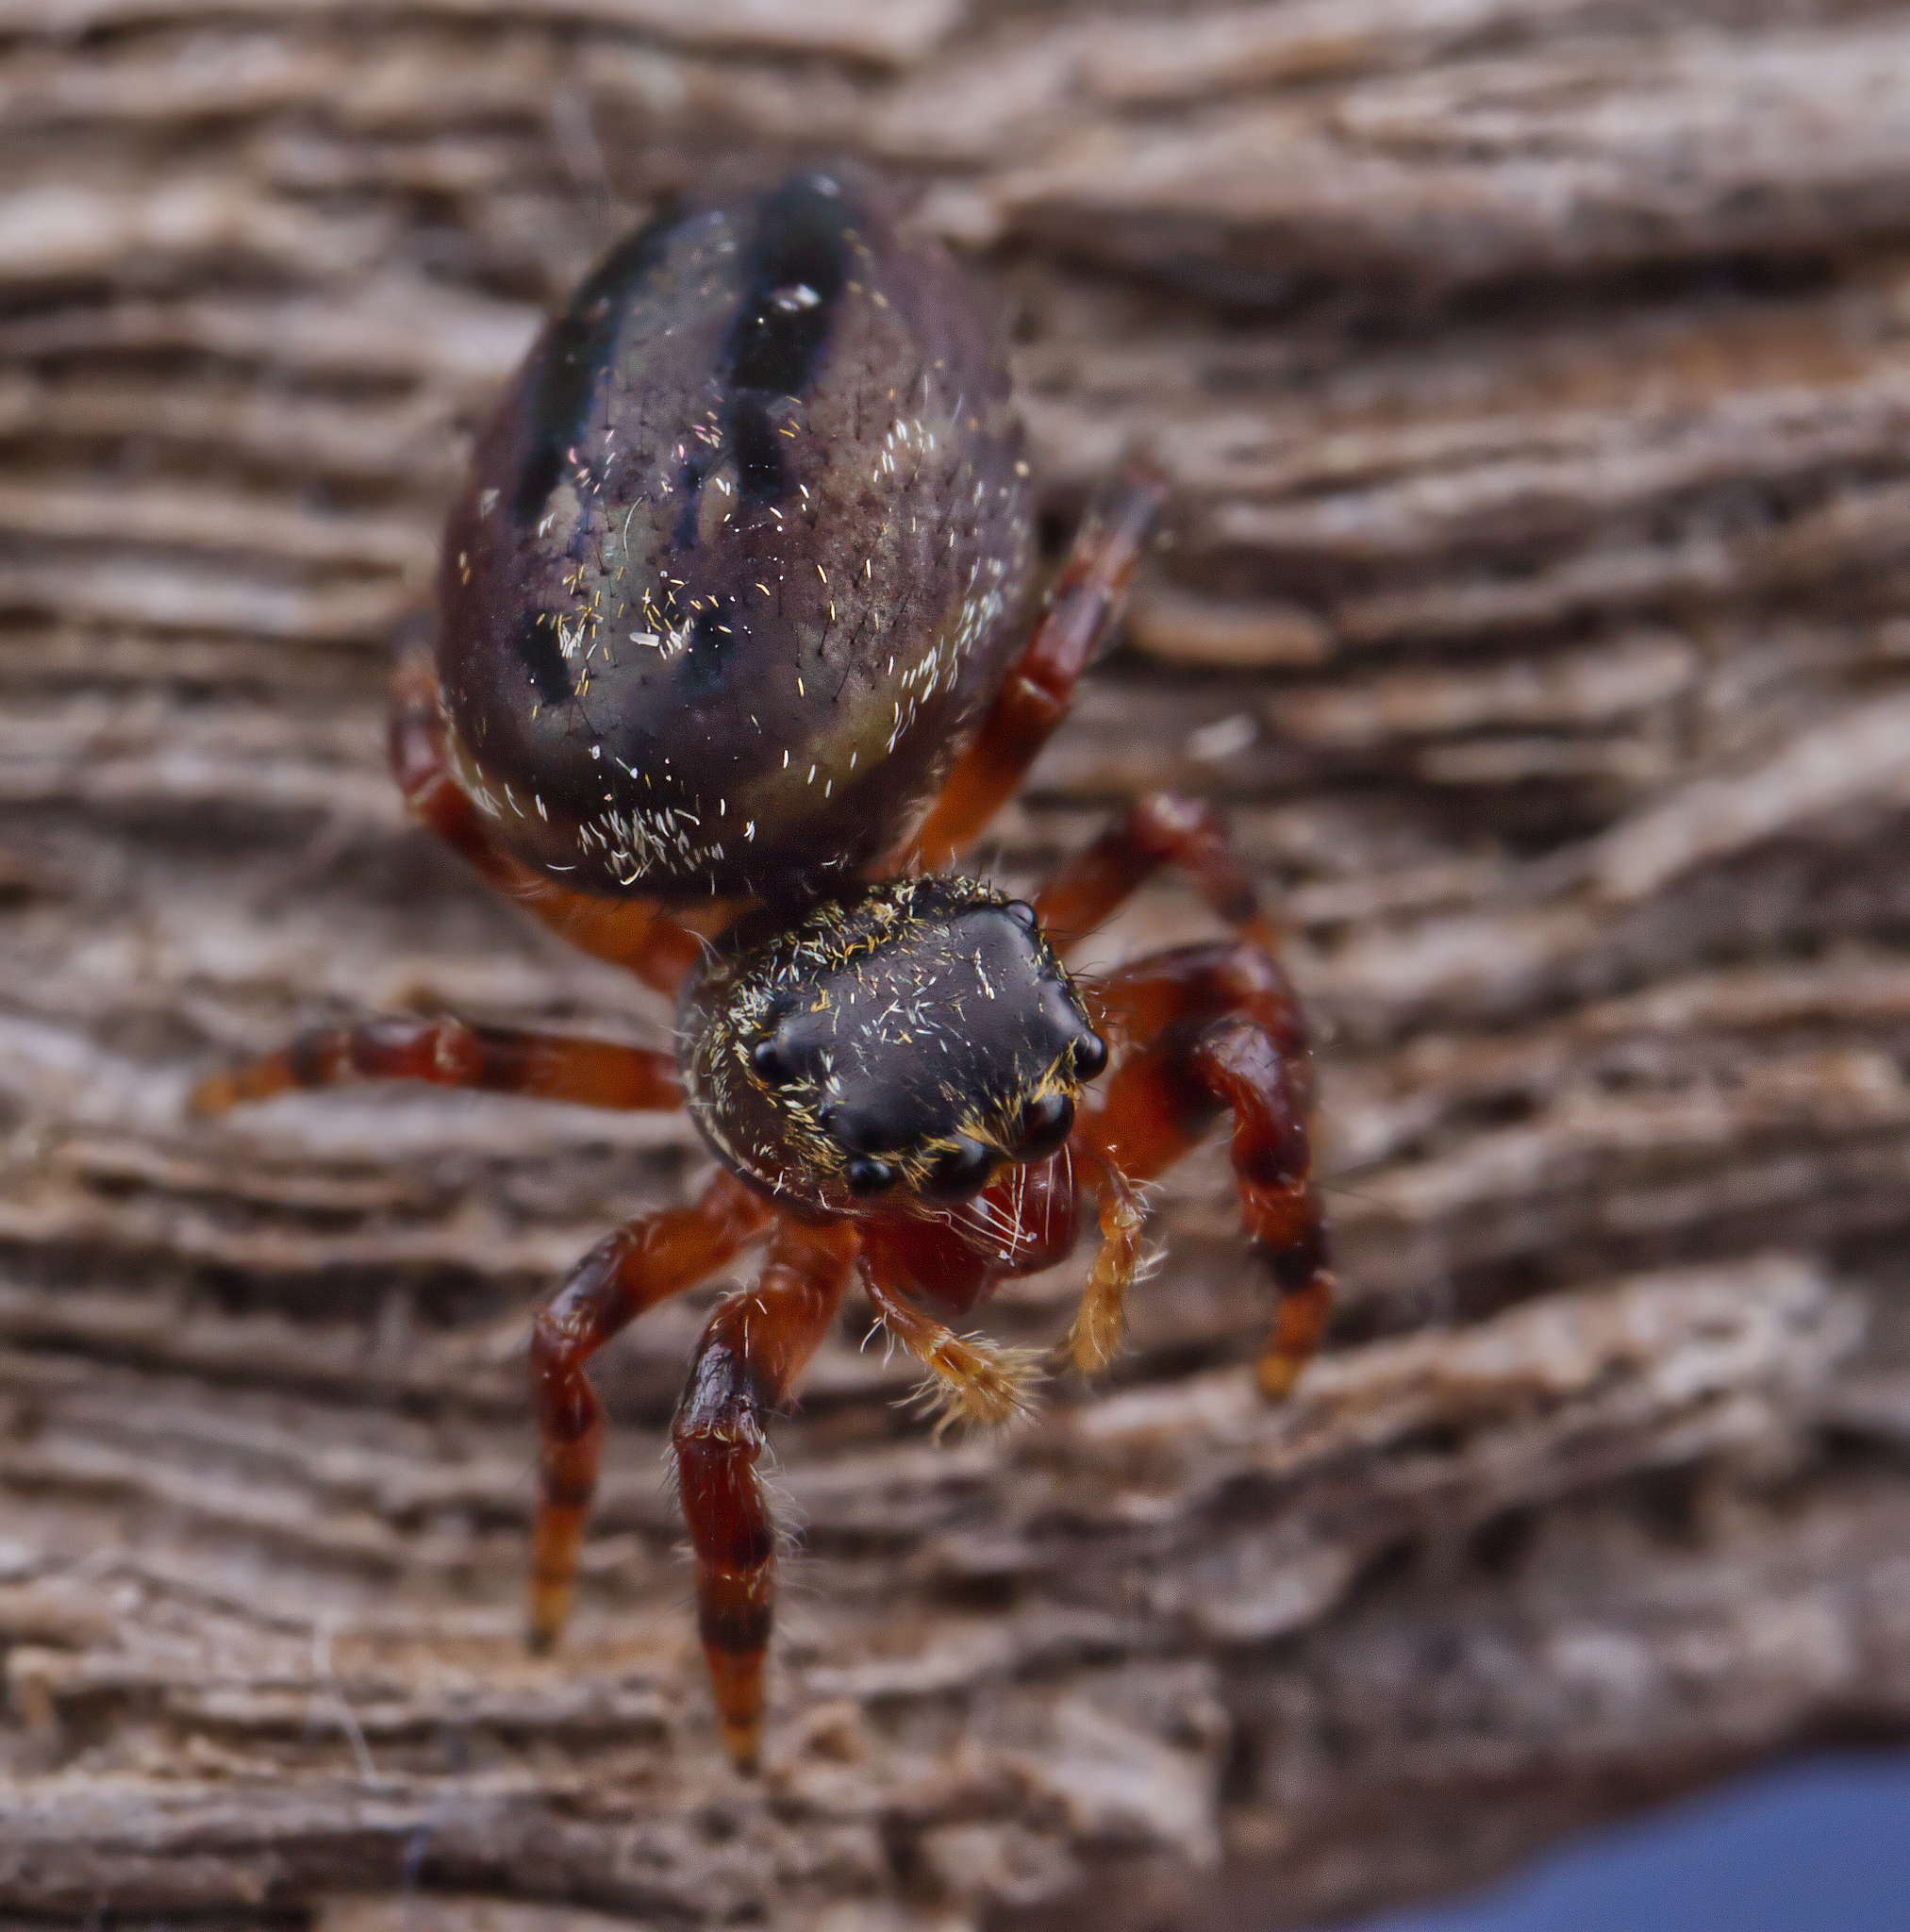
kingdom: Animalia
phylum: Arthropoda
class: Arachnida
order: Araneae
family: Salticidae
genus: Phidippus
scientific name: Phidippus clarus
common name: Brilliant jumping spider
